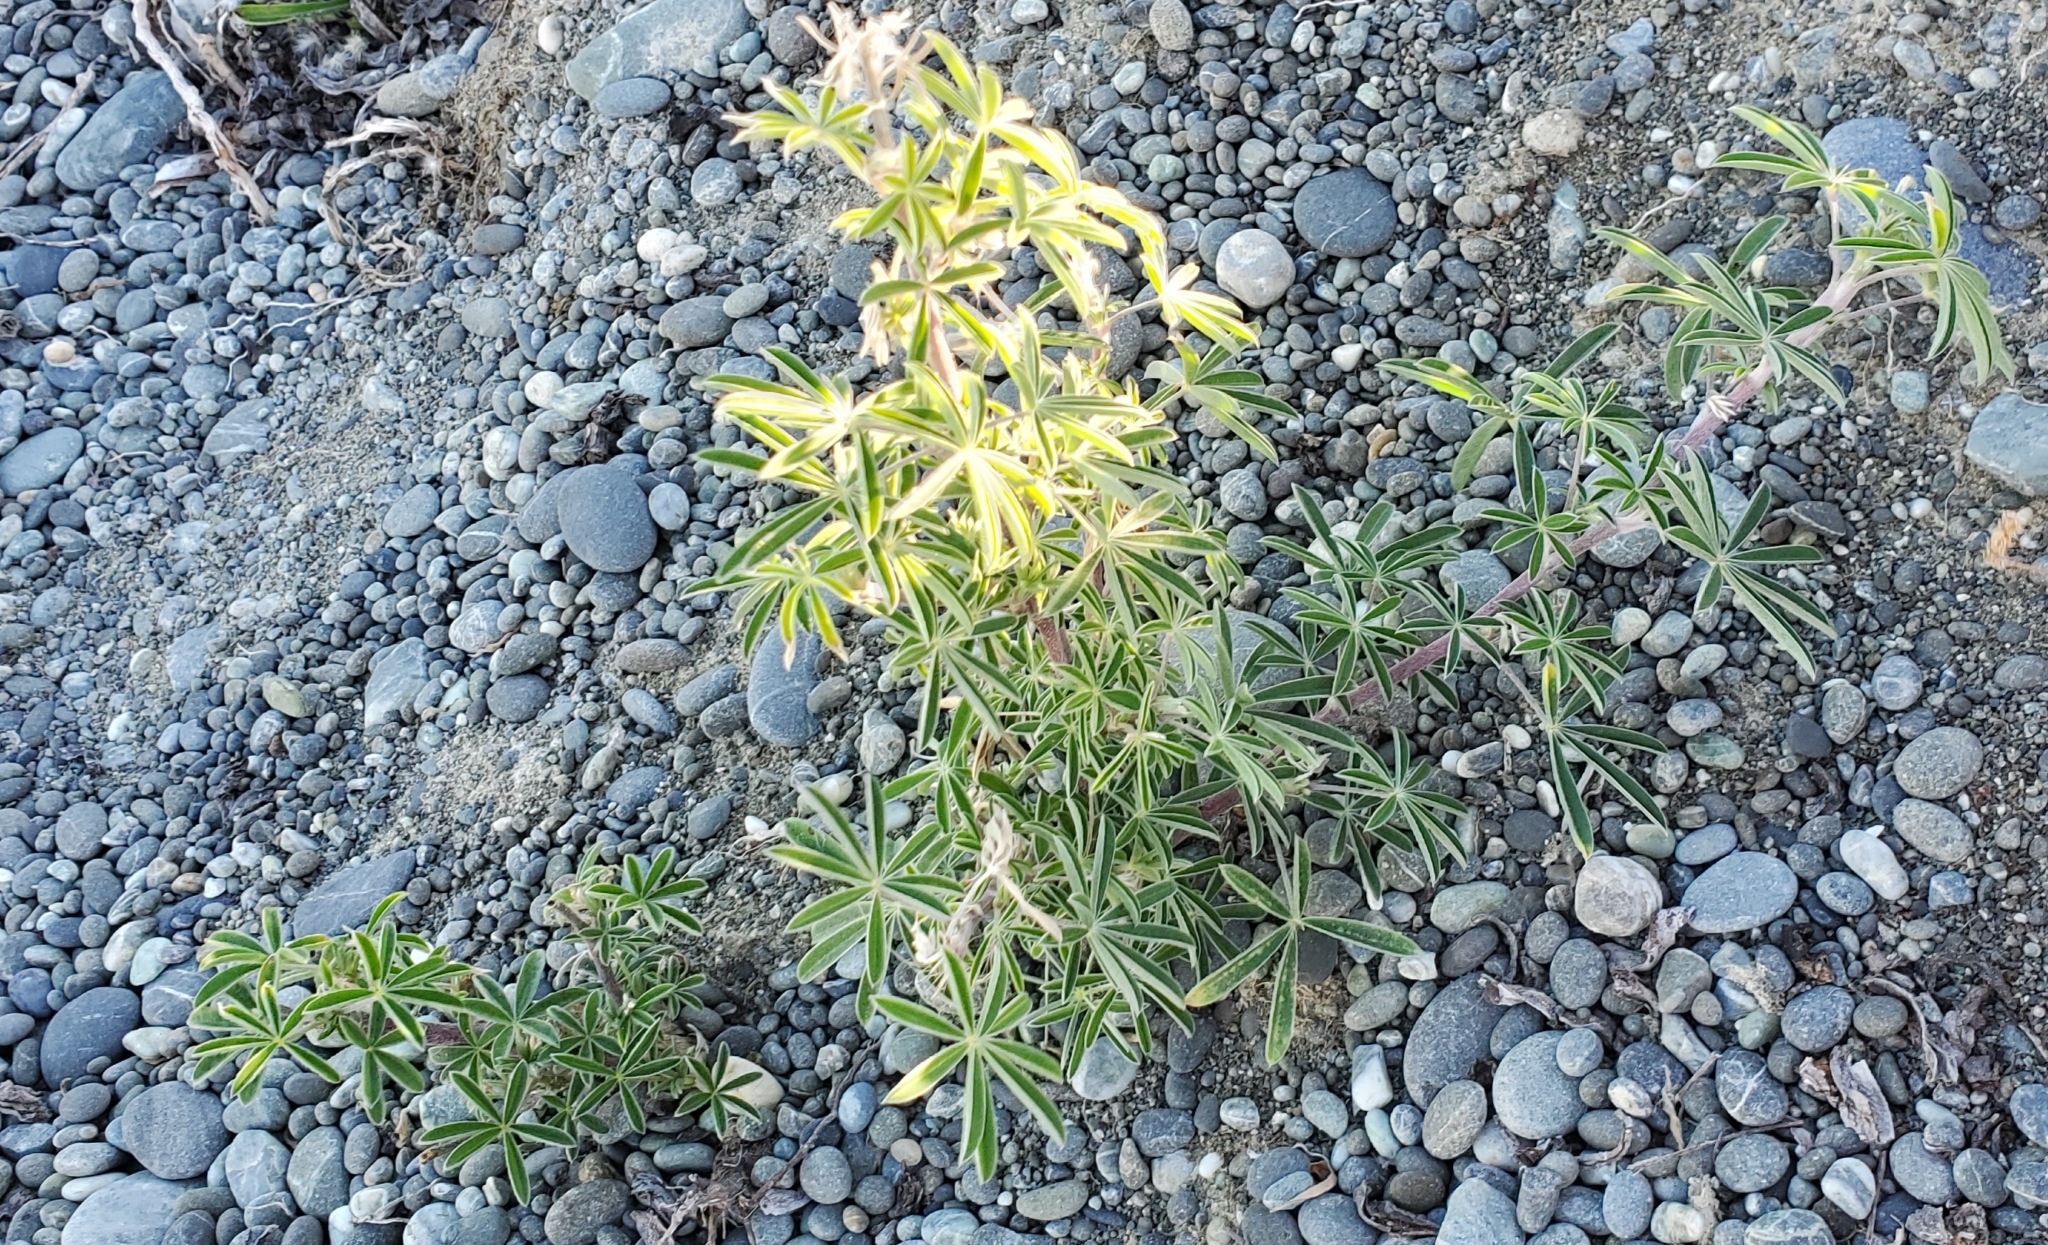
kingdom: Plantae
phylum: Tracheophyta
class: Magnoliopsida
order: Fabales
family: Fabaceae
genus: Lupinus
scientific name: Lupinus arboreus
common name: Yellow bush lupine
